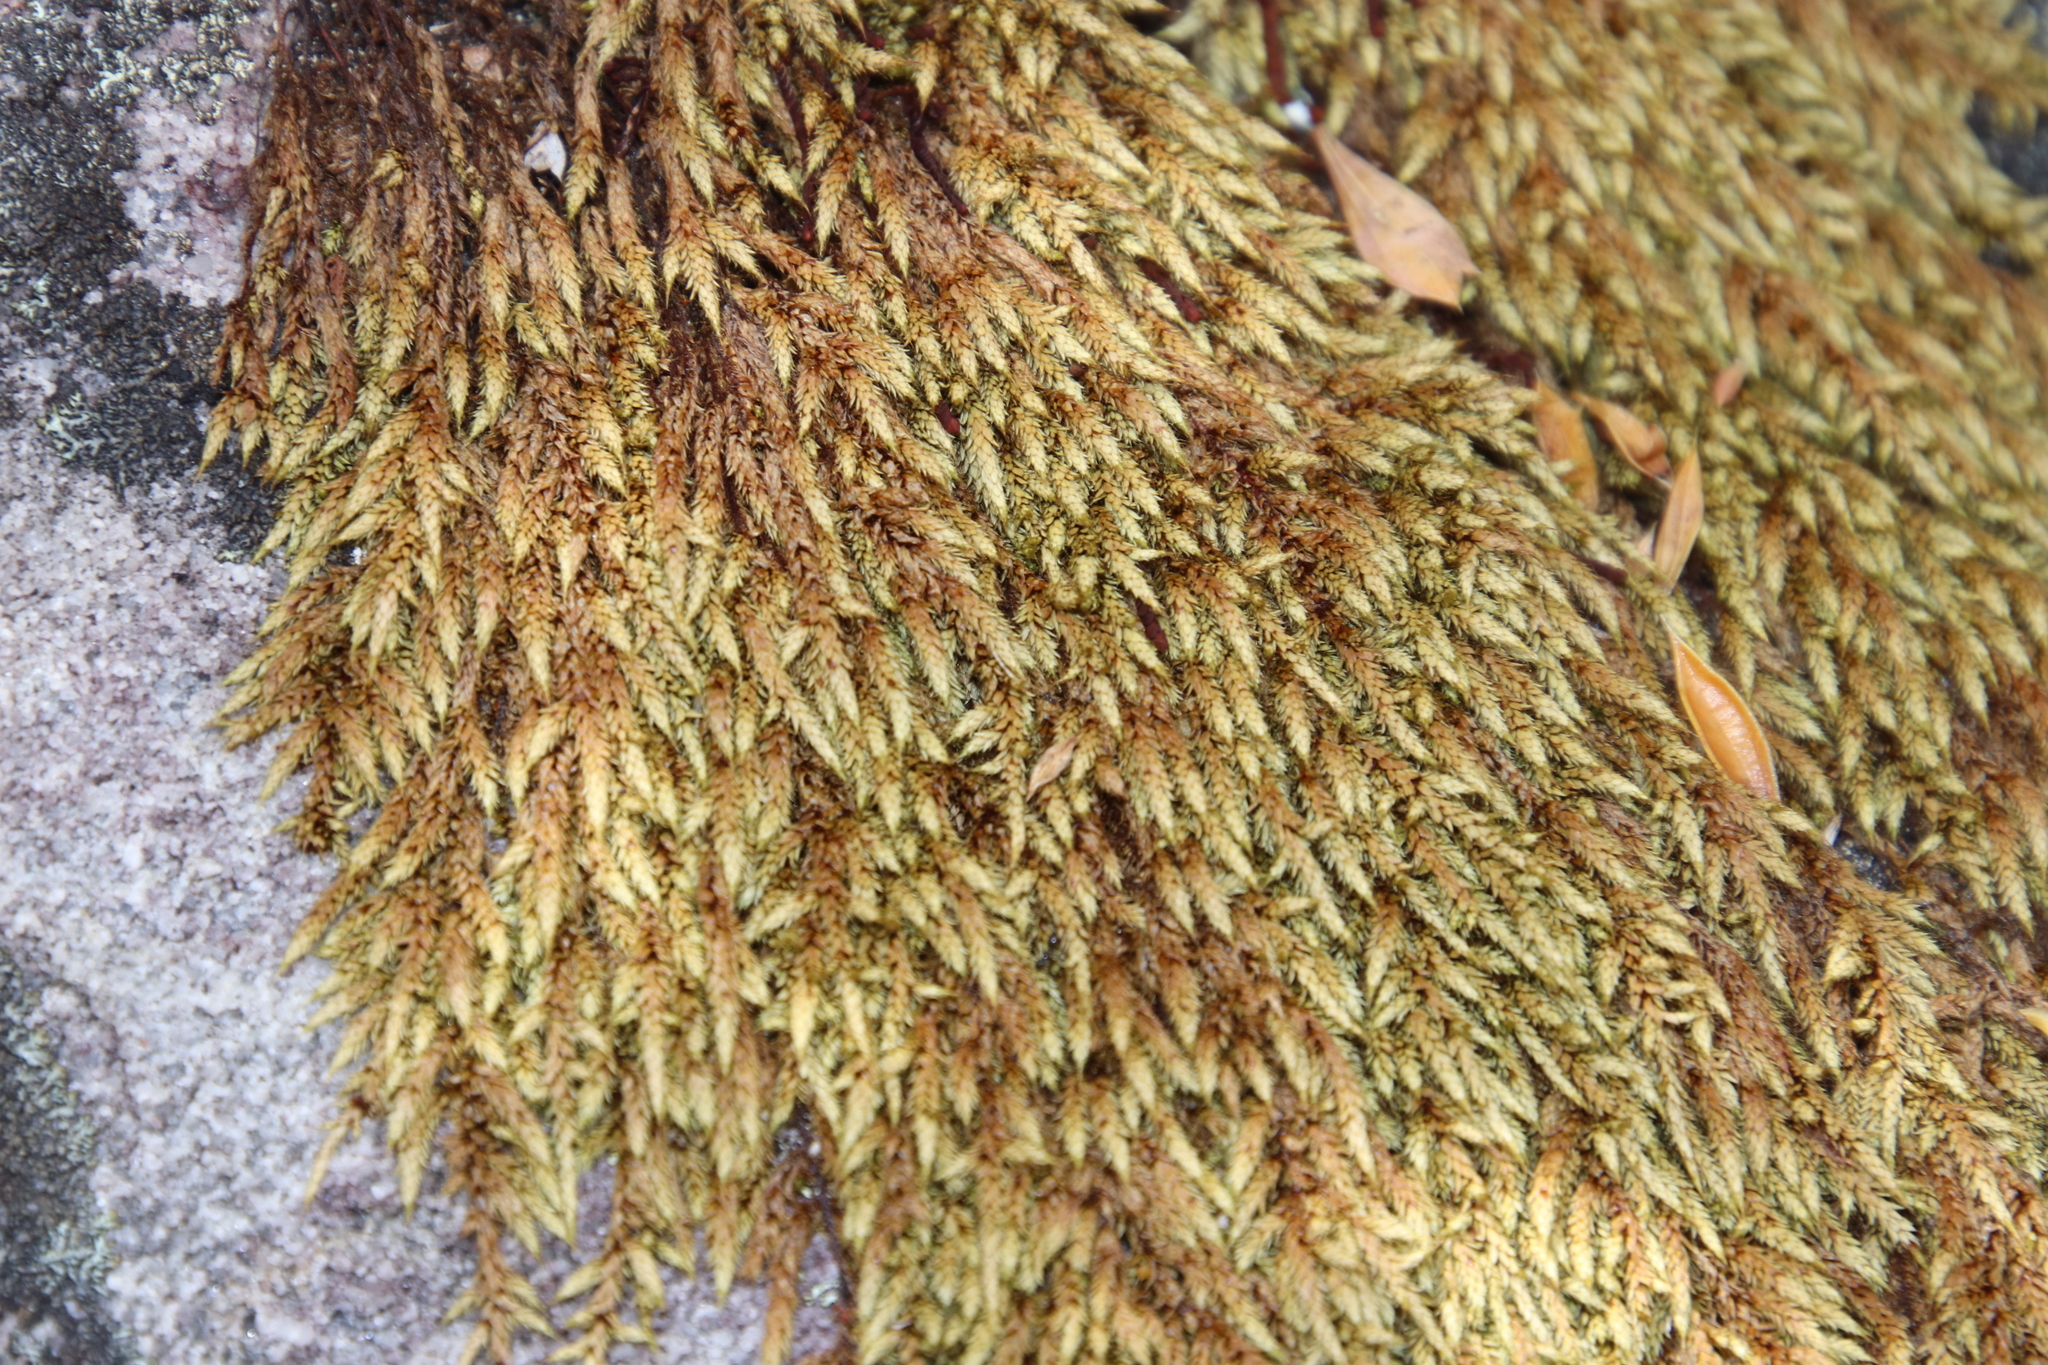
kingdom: Plantae
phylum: Bryophyta
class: Bryopsida
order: Hedwigiales
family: Hedwigiaceae
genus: Rhacocarpus
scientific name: Rhacocarpus purpurascens
